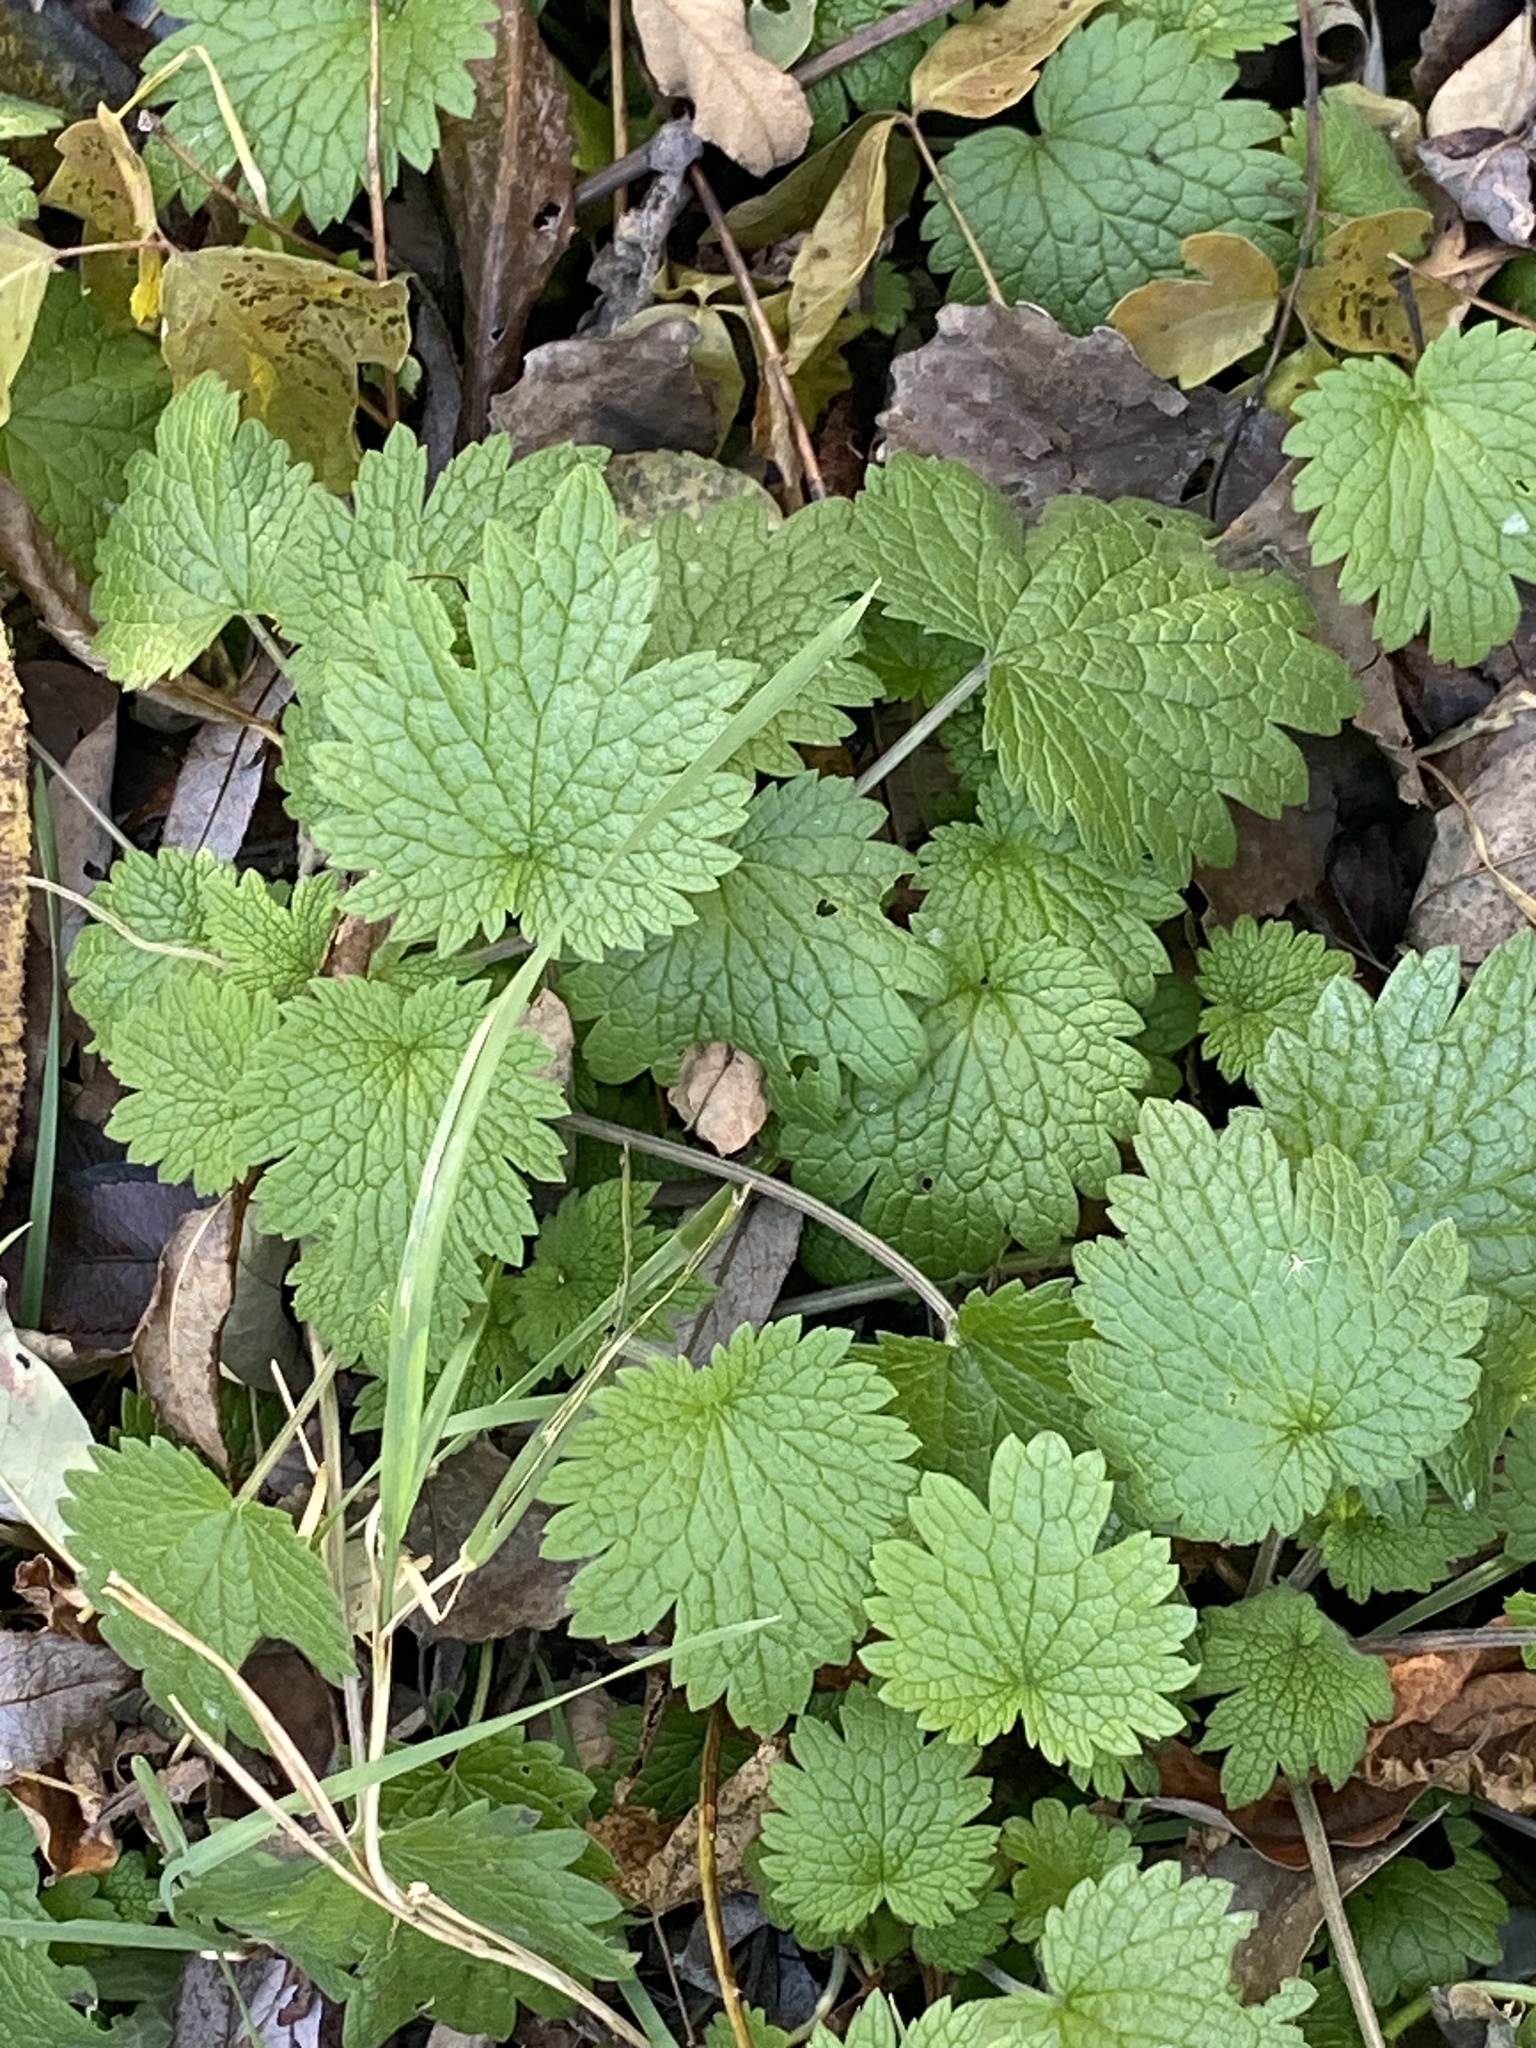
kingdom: Plantae
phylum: Tracheophyta
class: Magnoliopsida
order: Lamiales
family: Lamiaceae
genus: Leonurus
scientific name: Leonurus cardiaca
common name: Motherwort
